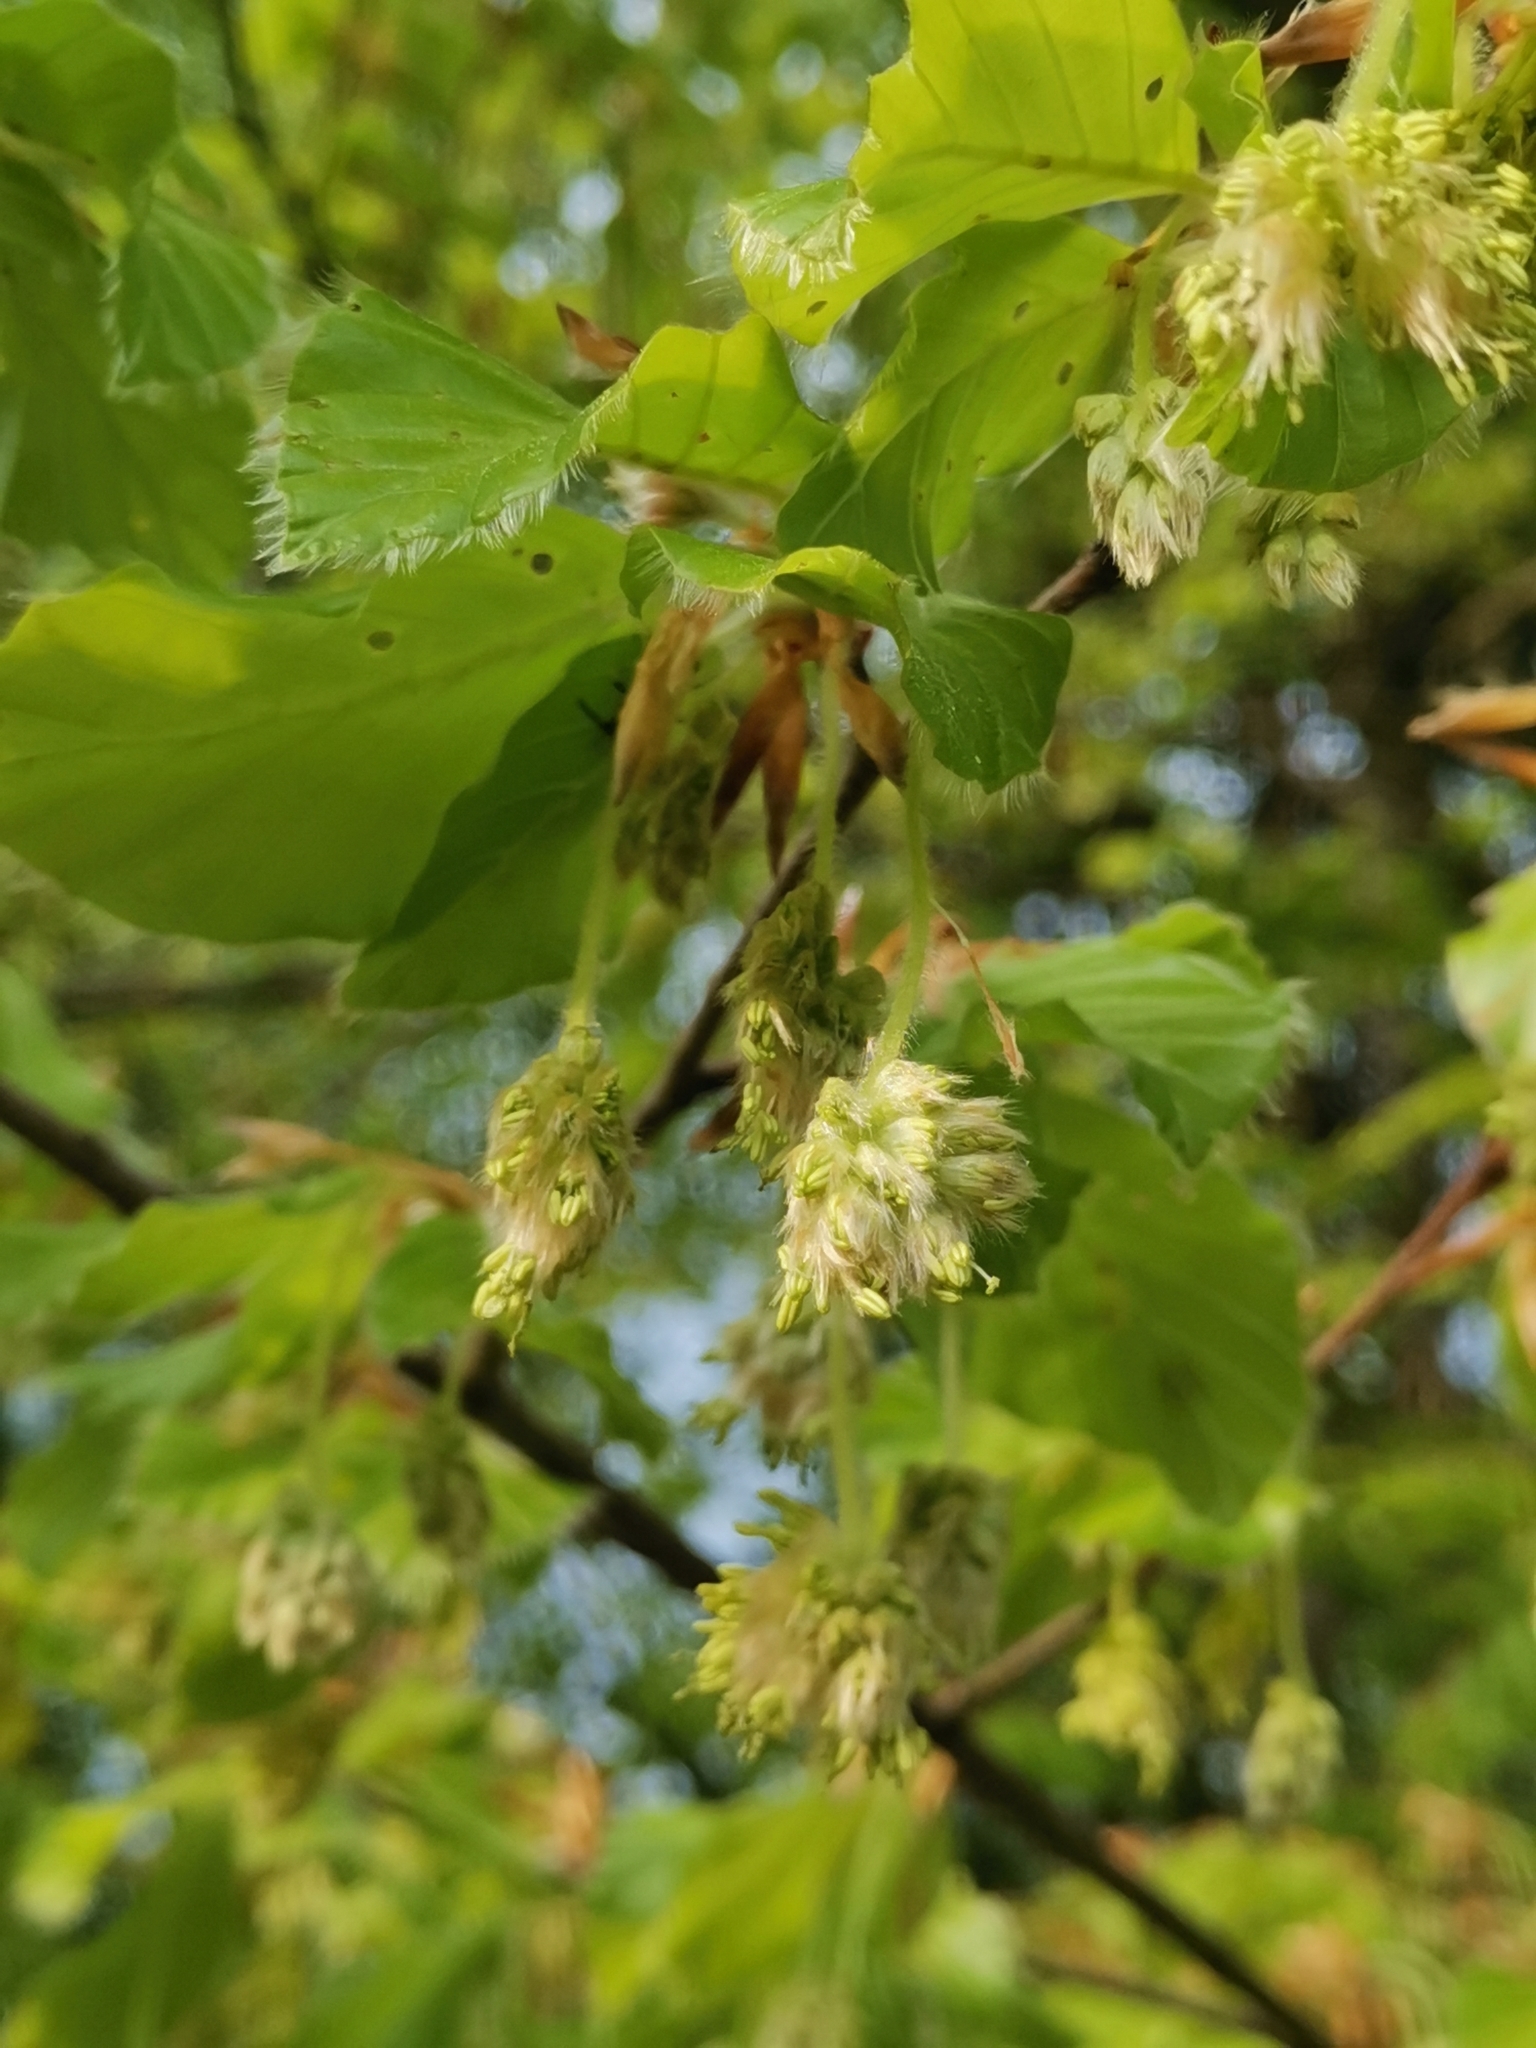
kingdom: Plantae
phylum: Tracheophyta
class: Magnoliopsida
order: Fagales
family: Fagaceae
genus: Fagus
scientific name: Fagus sylvatica
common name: Beech
